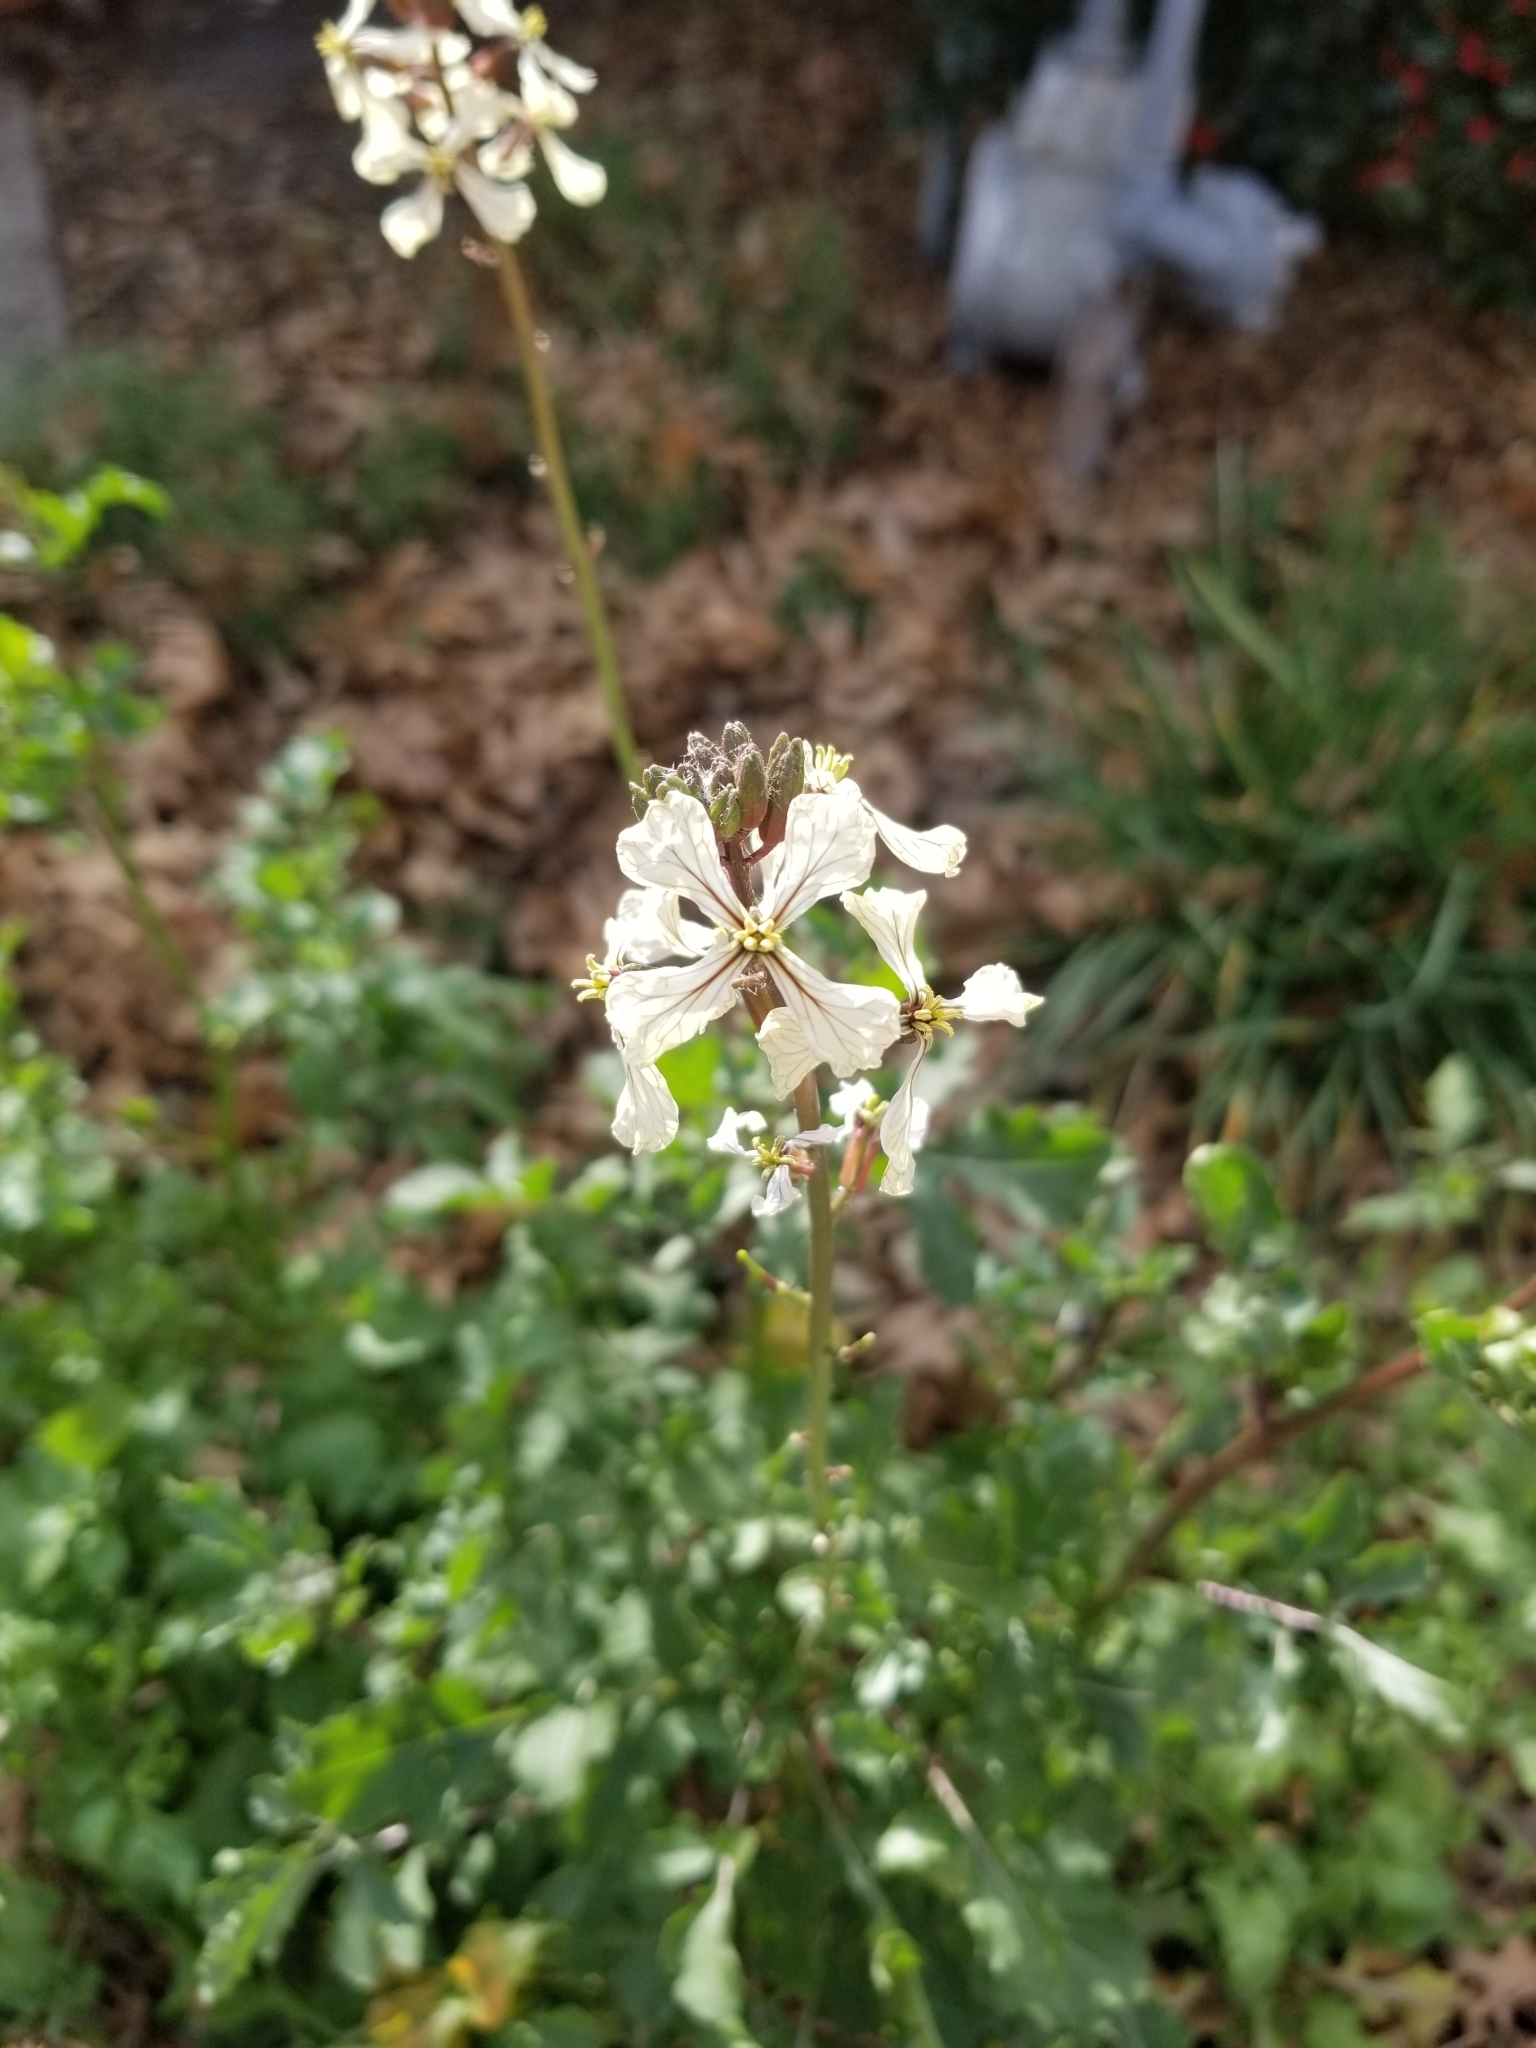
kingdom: Plantae
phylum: Tracheophyta
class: Magnoliopsida
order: Brassicales
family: Brassicaceae
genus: Eruca
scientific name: Eruca vesicaria
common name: Garden rocket
